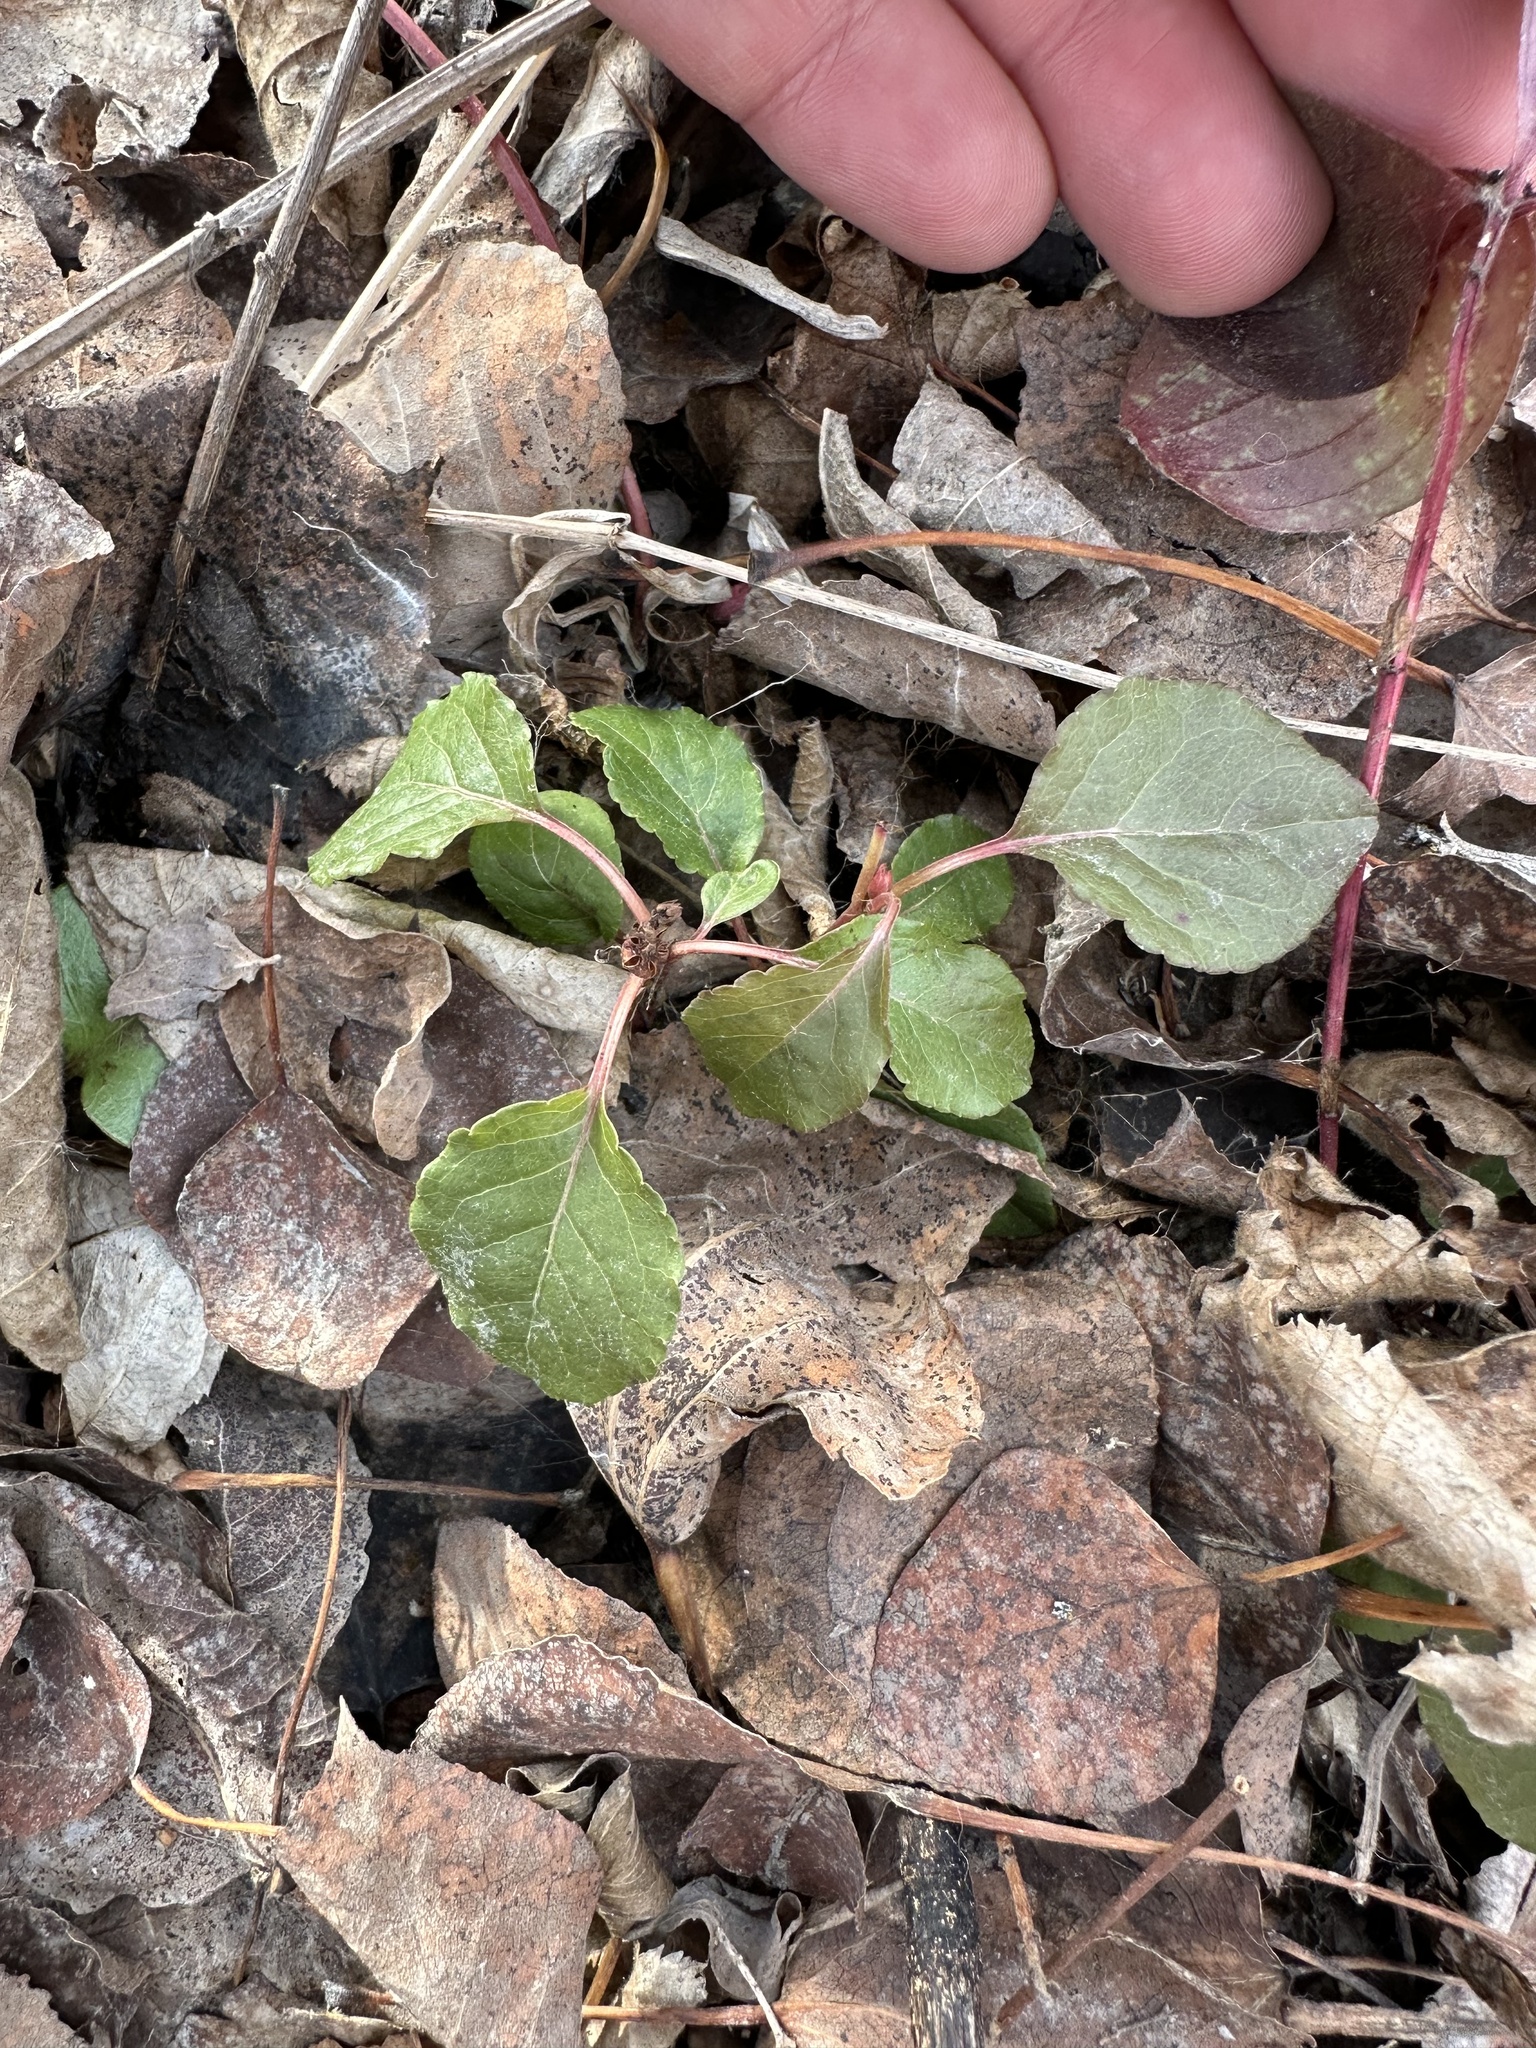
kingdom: Plantae
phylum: Tracheophyta
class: Magnoliopsida
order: Ericales
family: Ericaceae
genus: Orthilia
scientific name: Orthilia secunda
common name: One-sided orthilia
